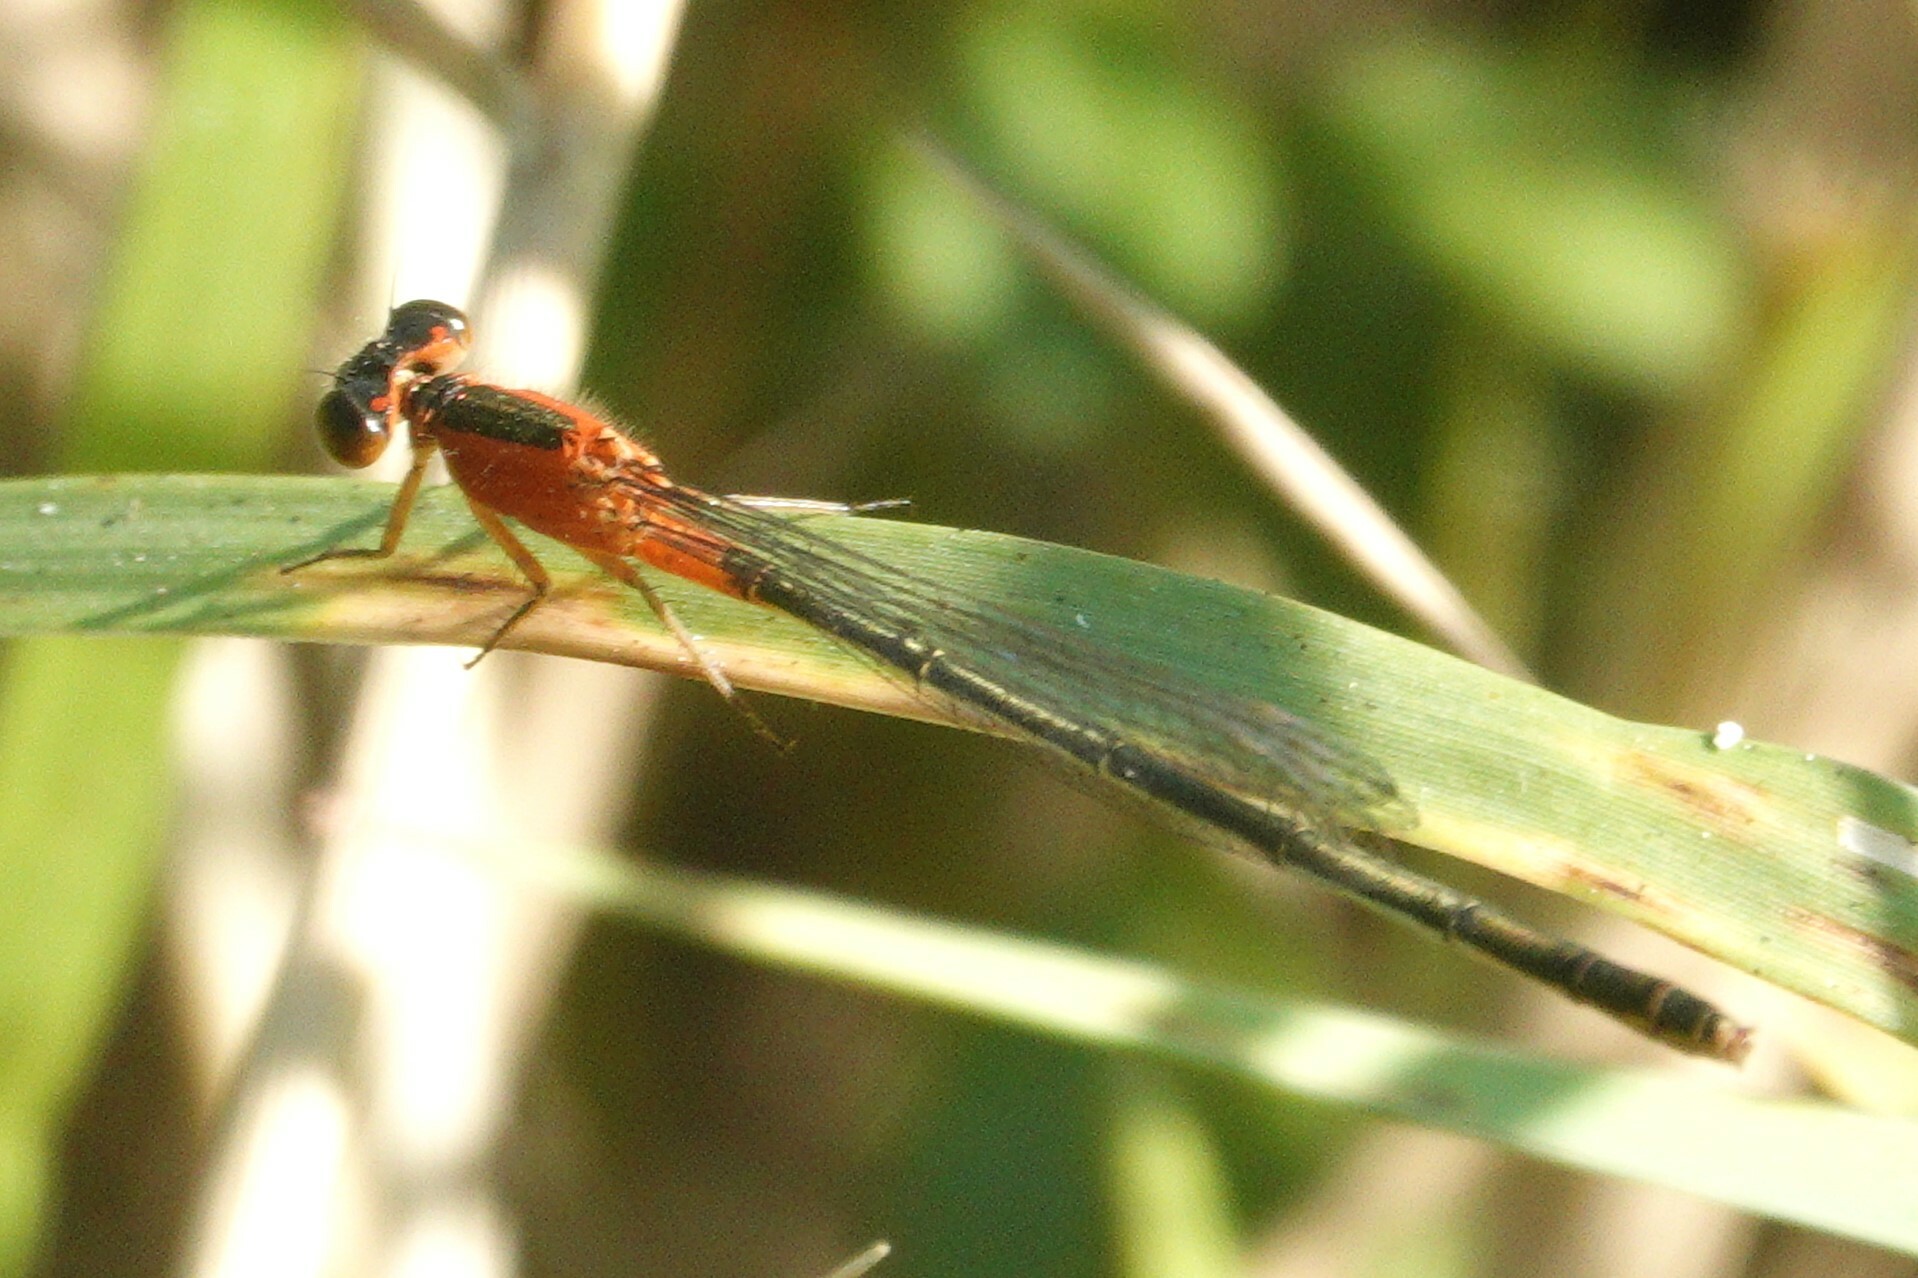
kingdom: Animalia
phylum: Arthropoda
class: Insecta
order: Odonata
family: Coenagrionidae
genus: Ischnura
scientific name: Ischnura ramburii
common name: Rambur's forktail
